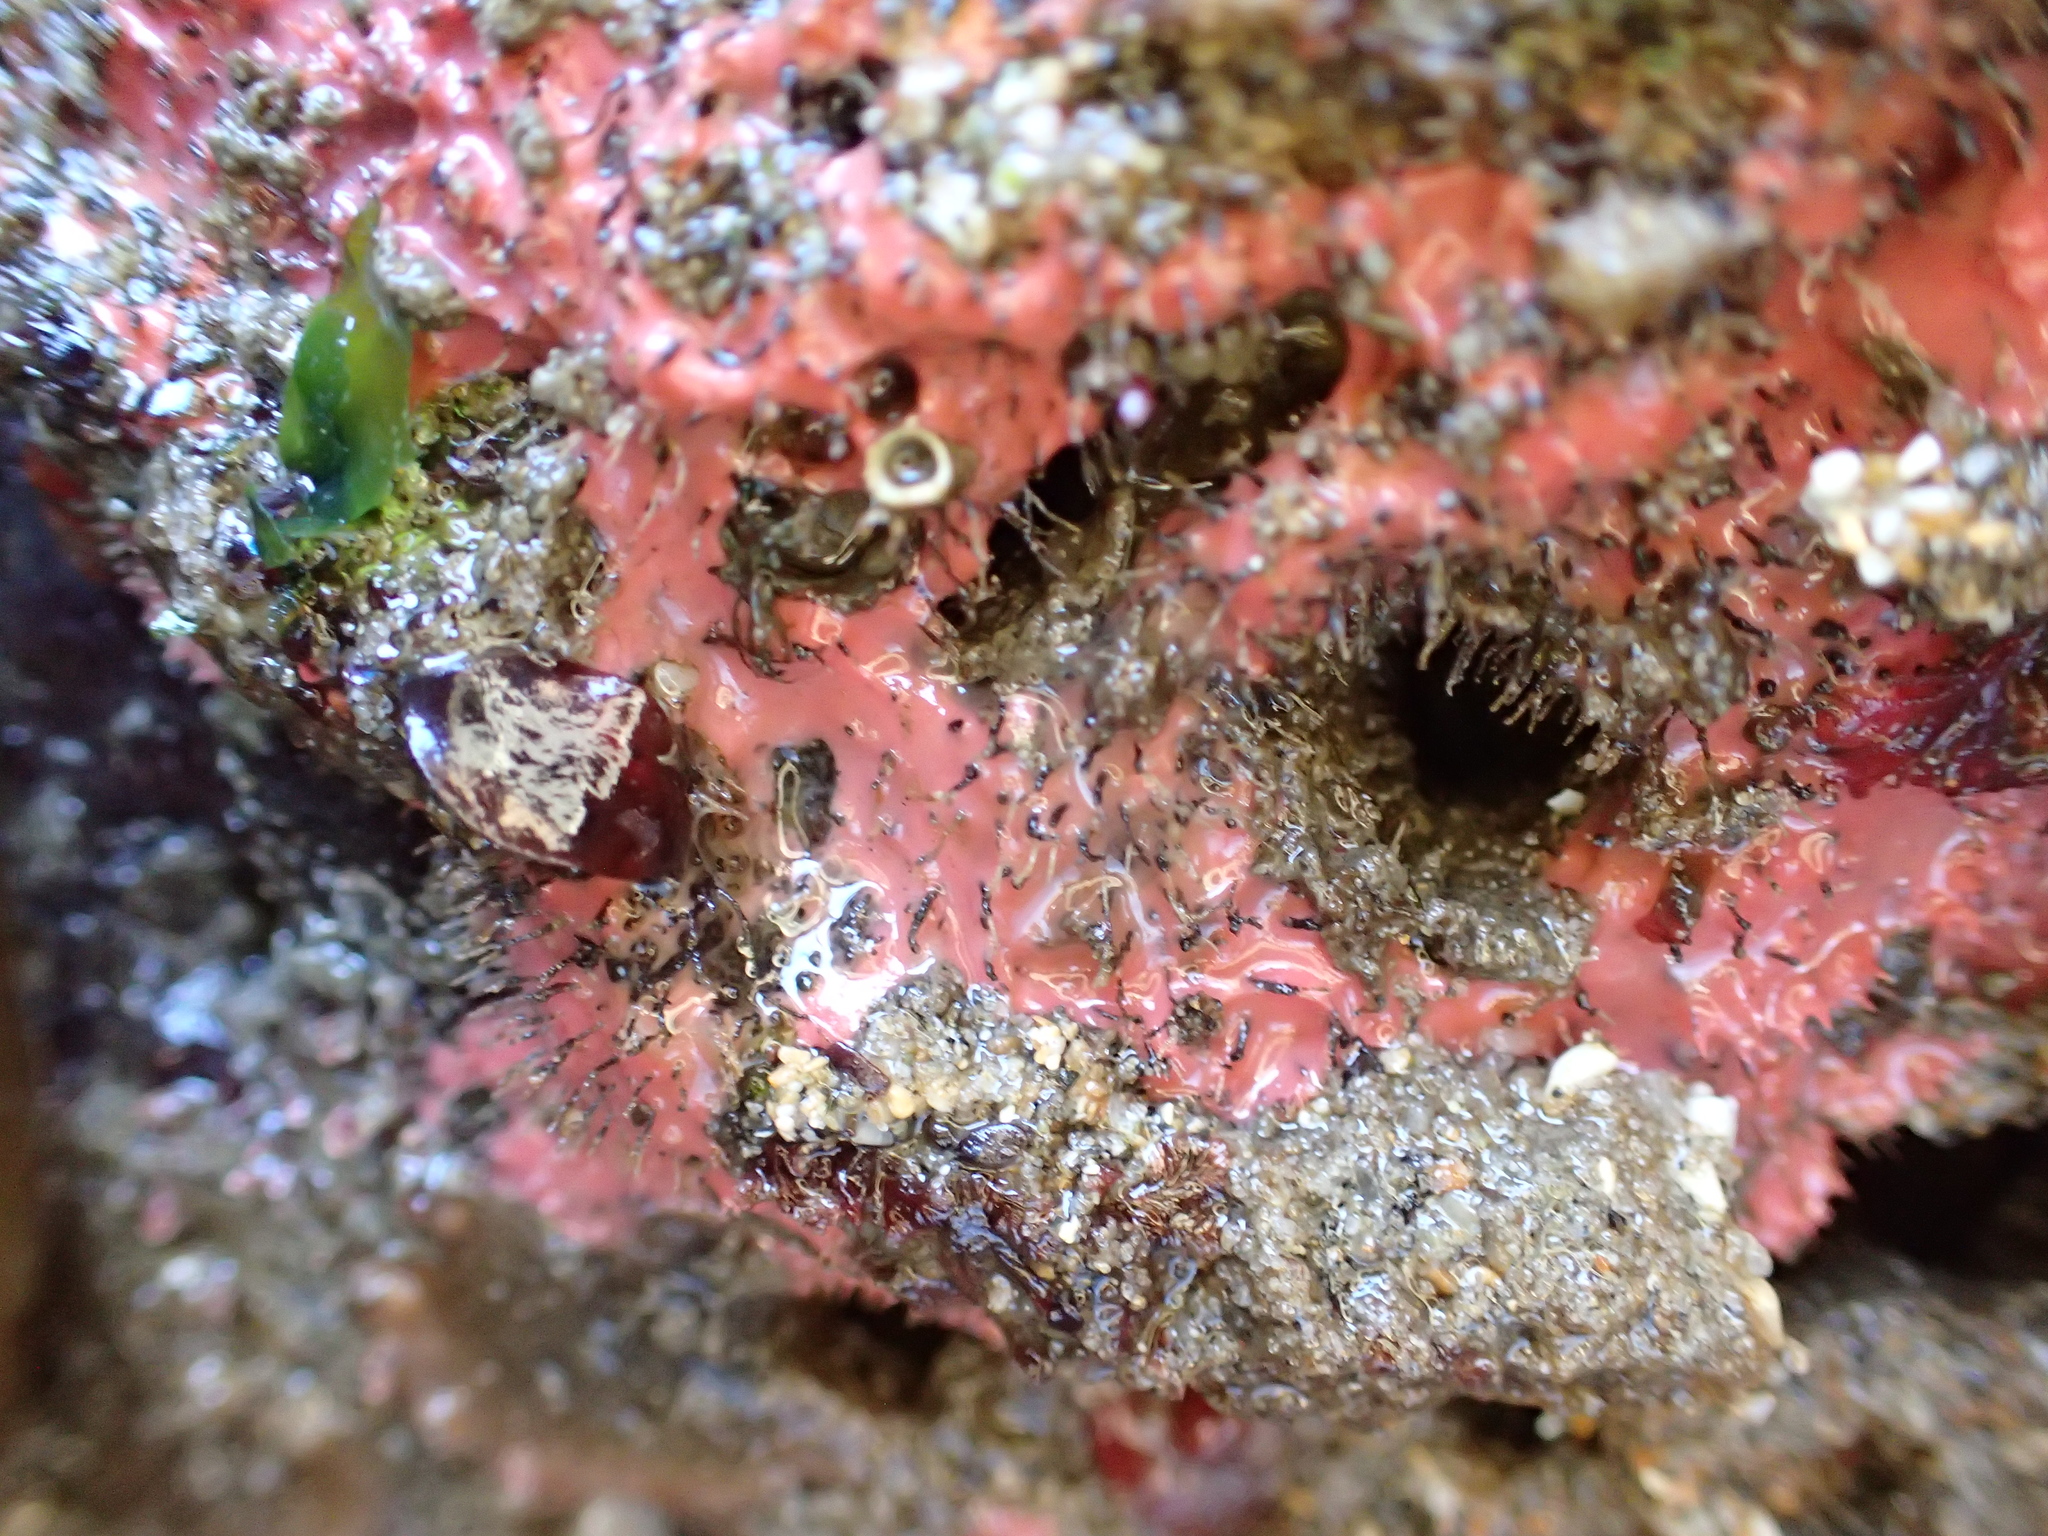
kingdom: Animalia
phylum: Porifera
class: Demospongiae
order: Dendroceratida
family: Darwinellidae
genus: Aplysilla
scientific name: Aplysilla glacialis
